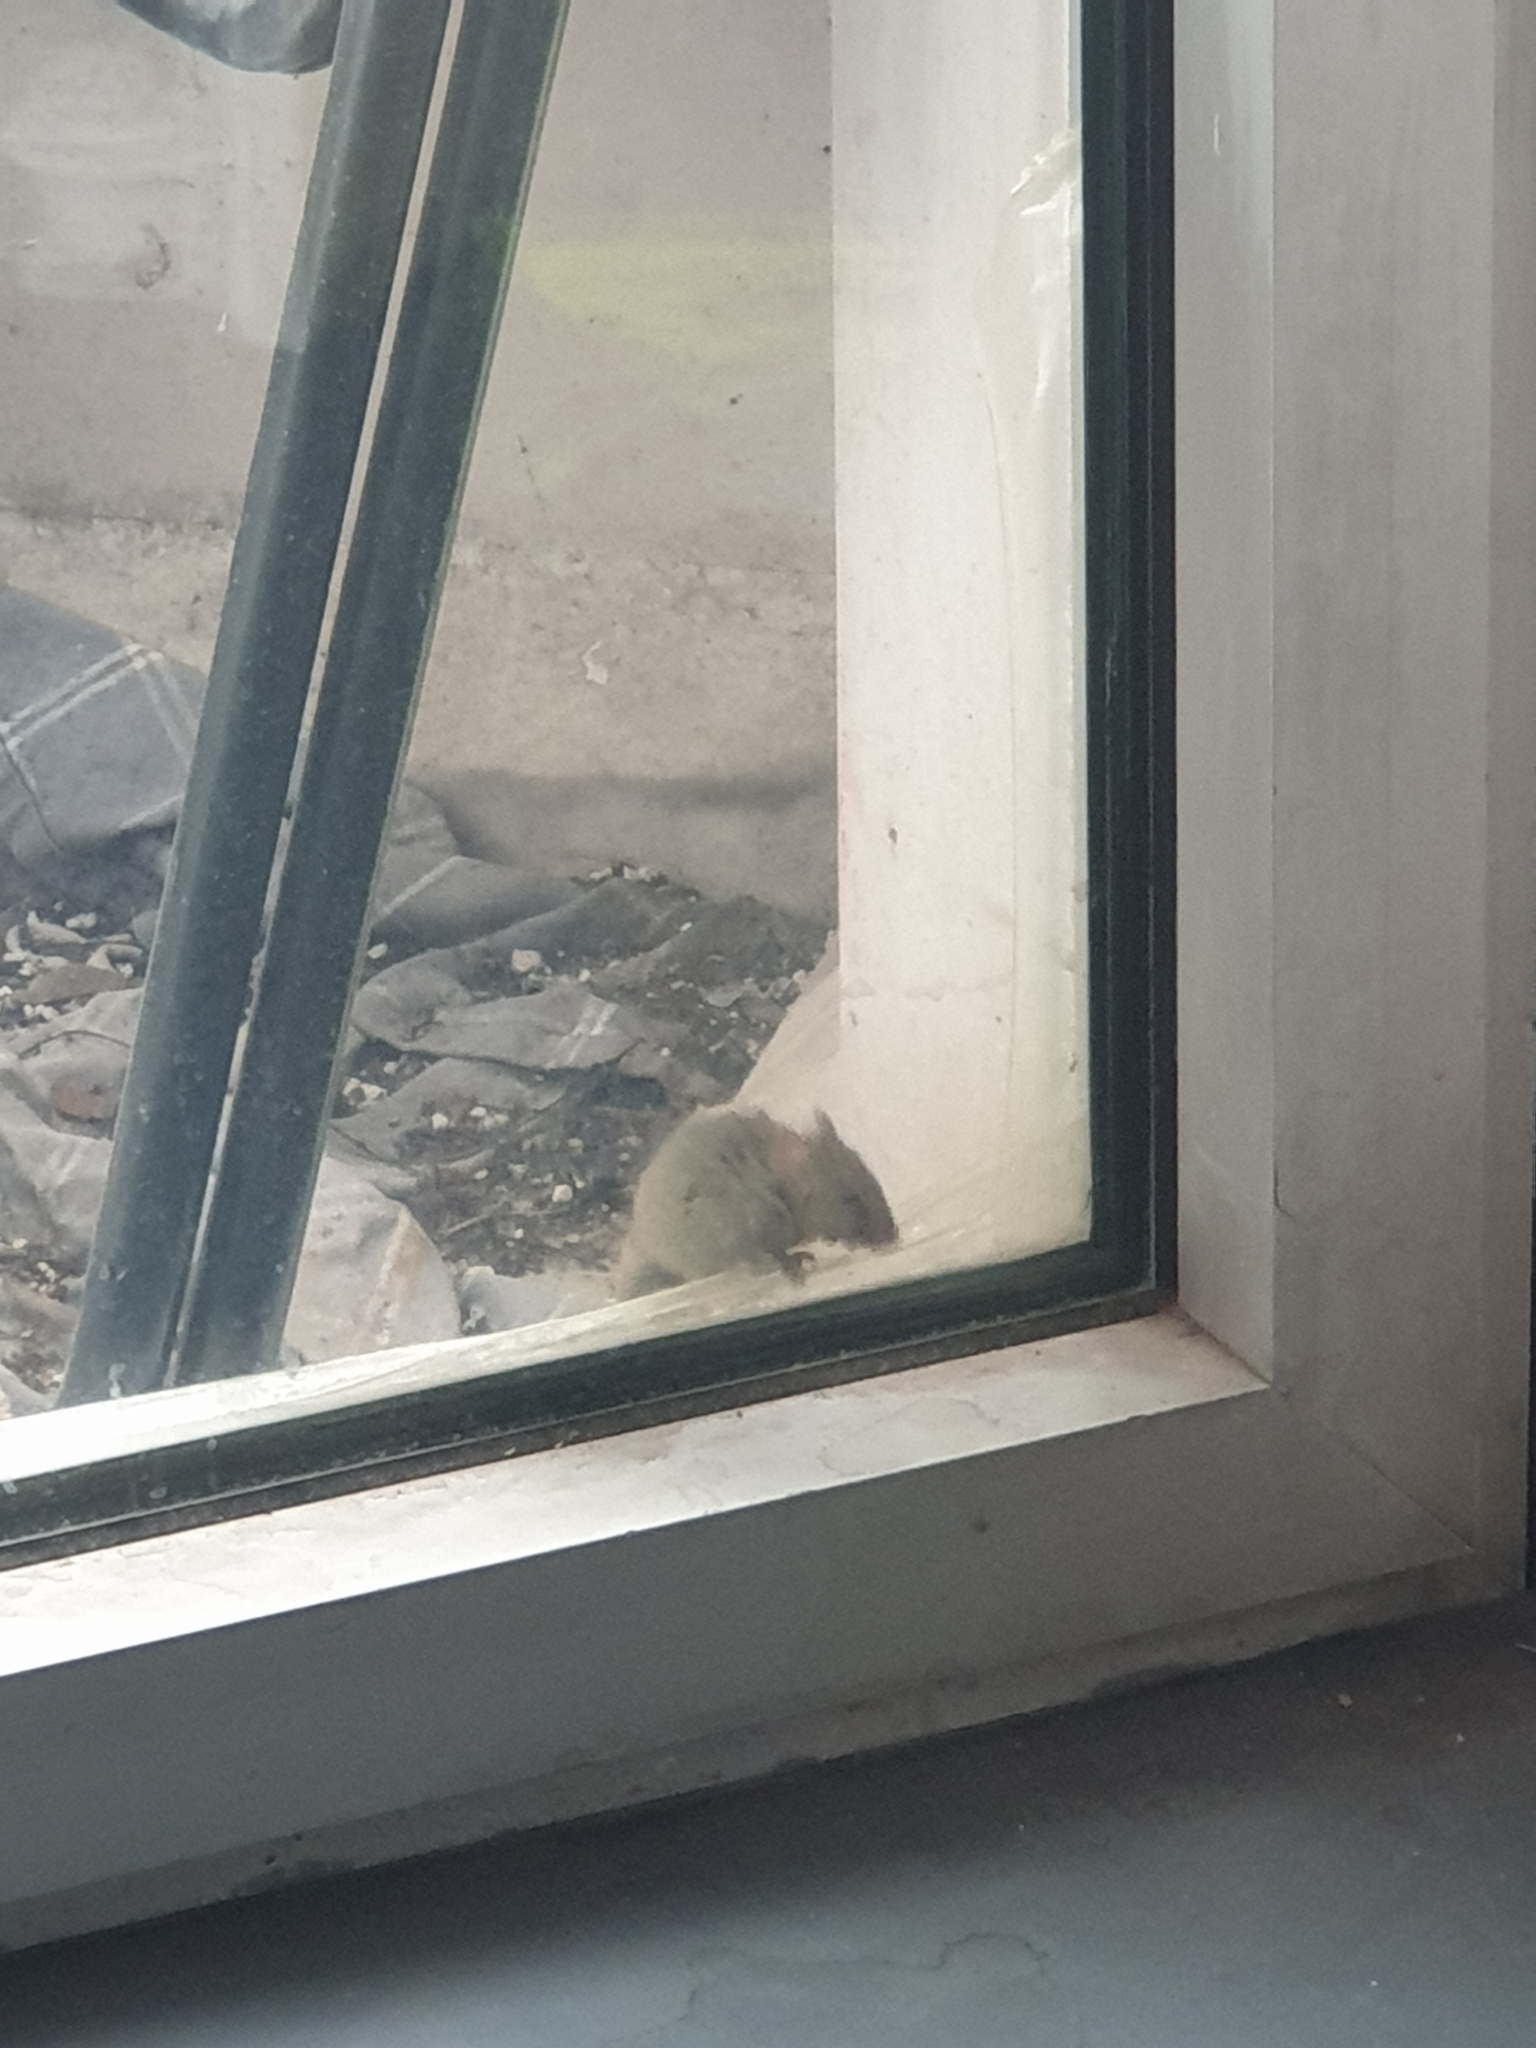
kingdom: Animalia
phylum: Chordata
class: Mammalia
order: Rodentia
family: Muridae
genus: Mus
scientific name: Mus musculus
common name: House mouse
